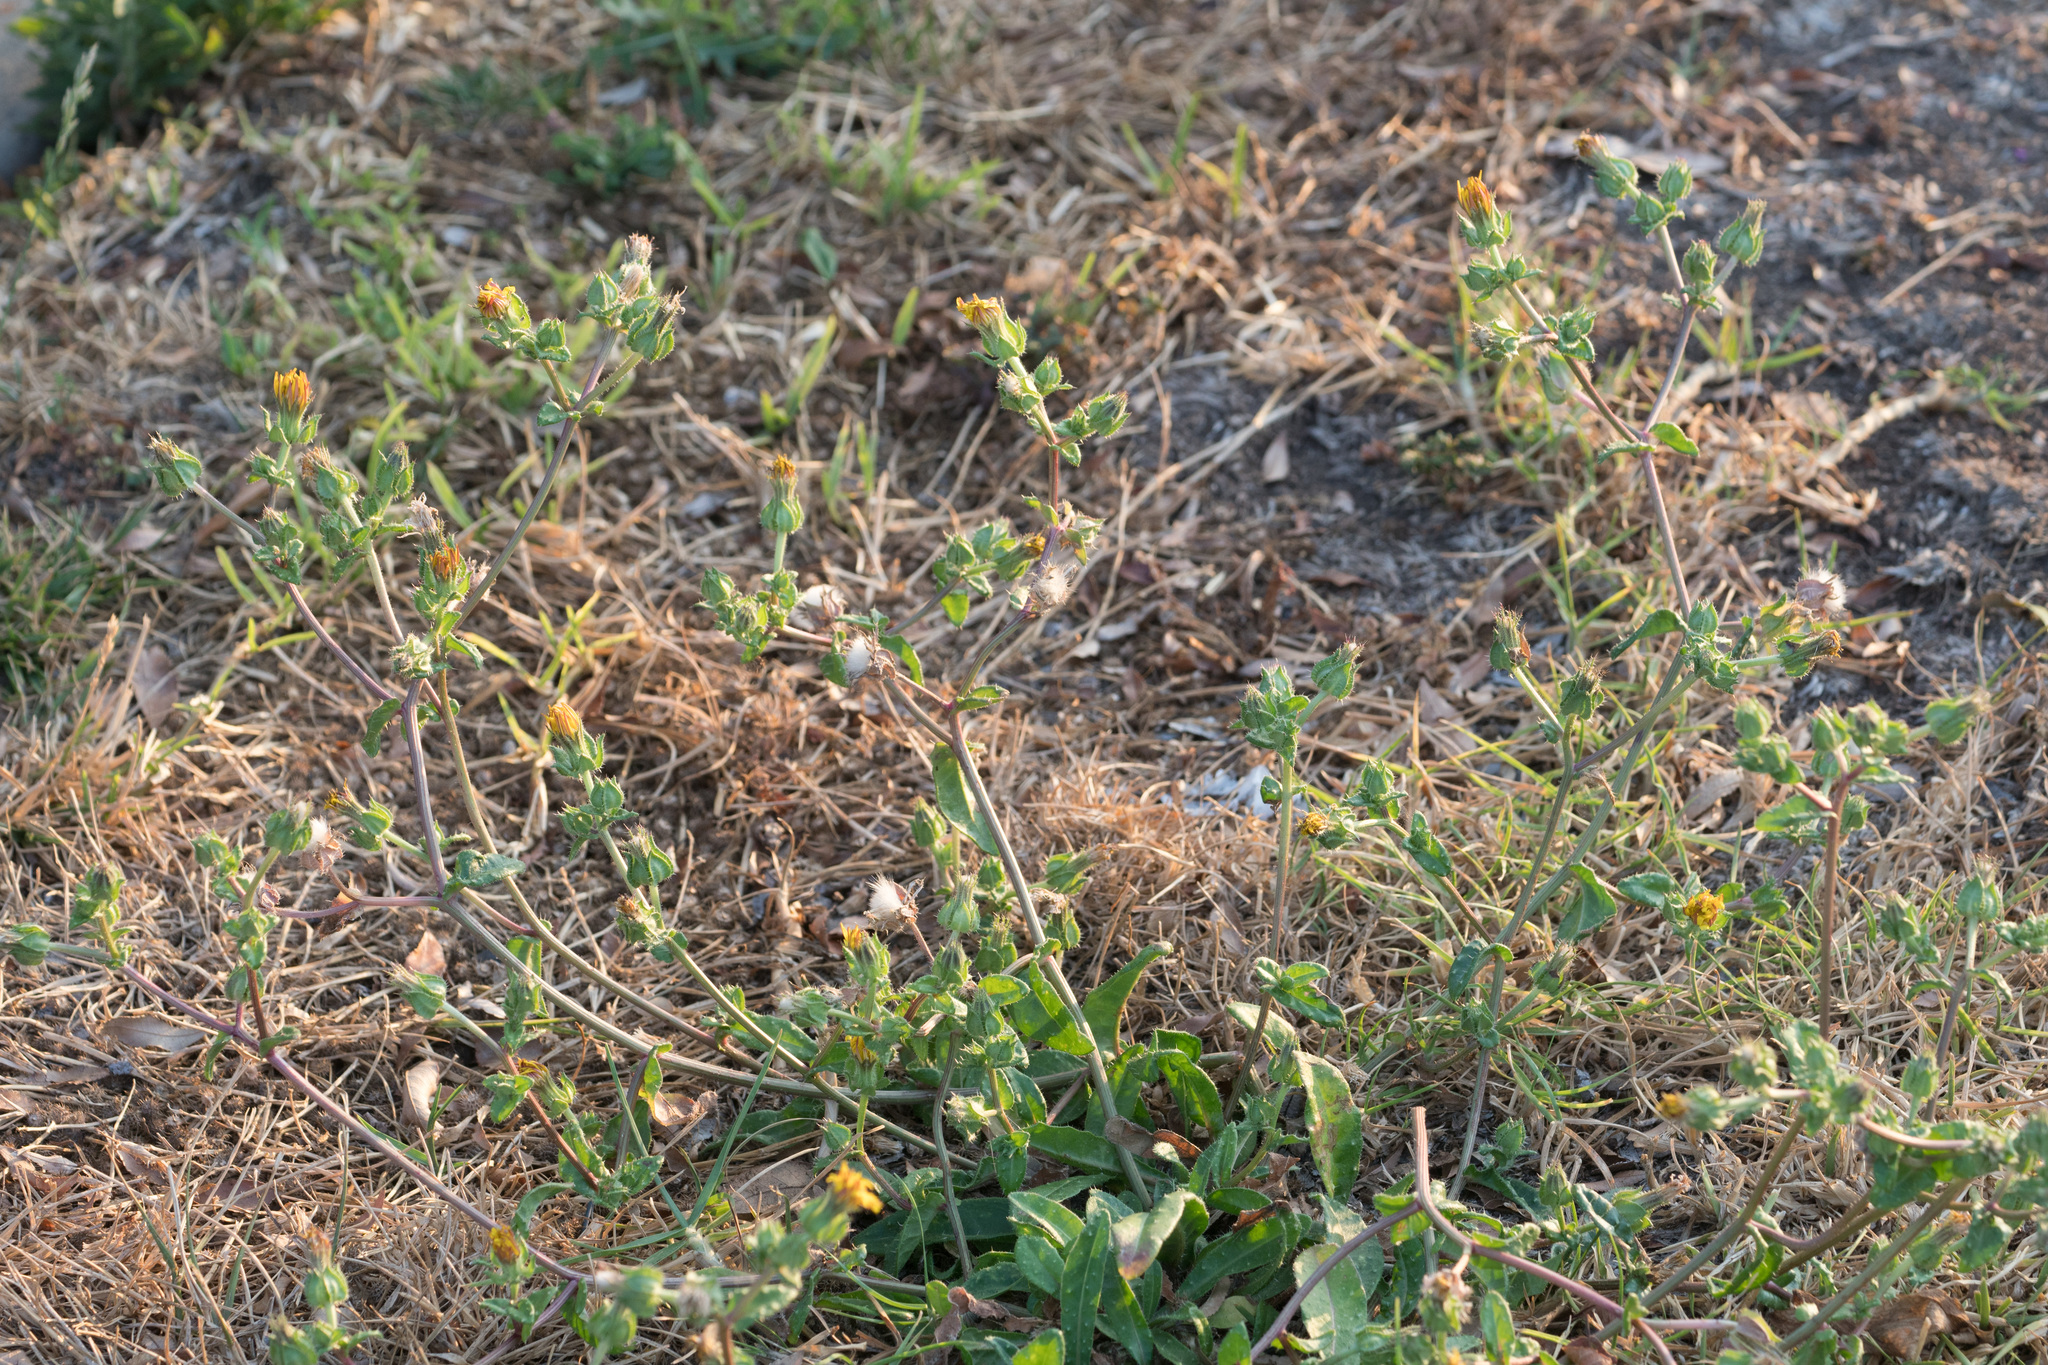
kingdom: Plantae
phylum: Tracheophyta
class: Magnoliopsida
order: Asterales
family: Asteraceae
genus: Helminthotheca
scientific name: Helminthotheca echioides
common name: Ox-tongue
